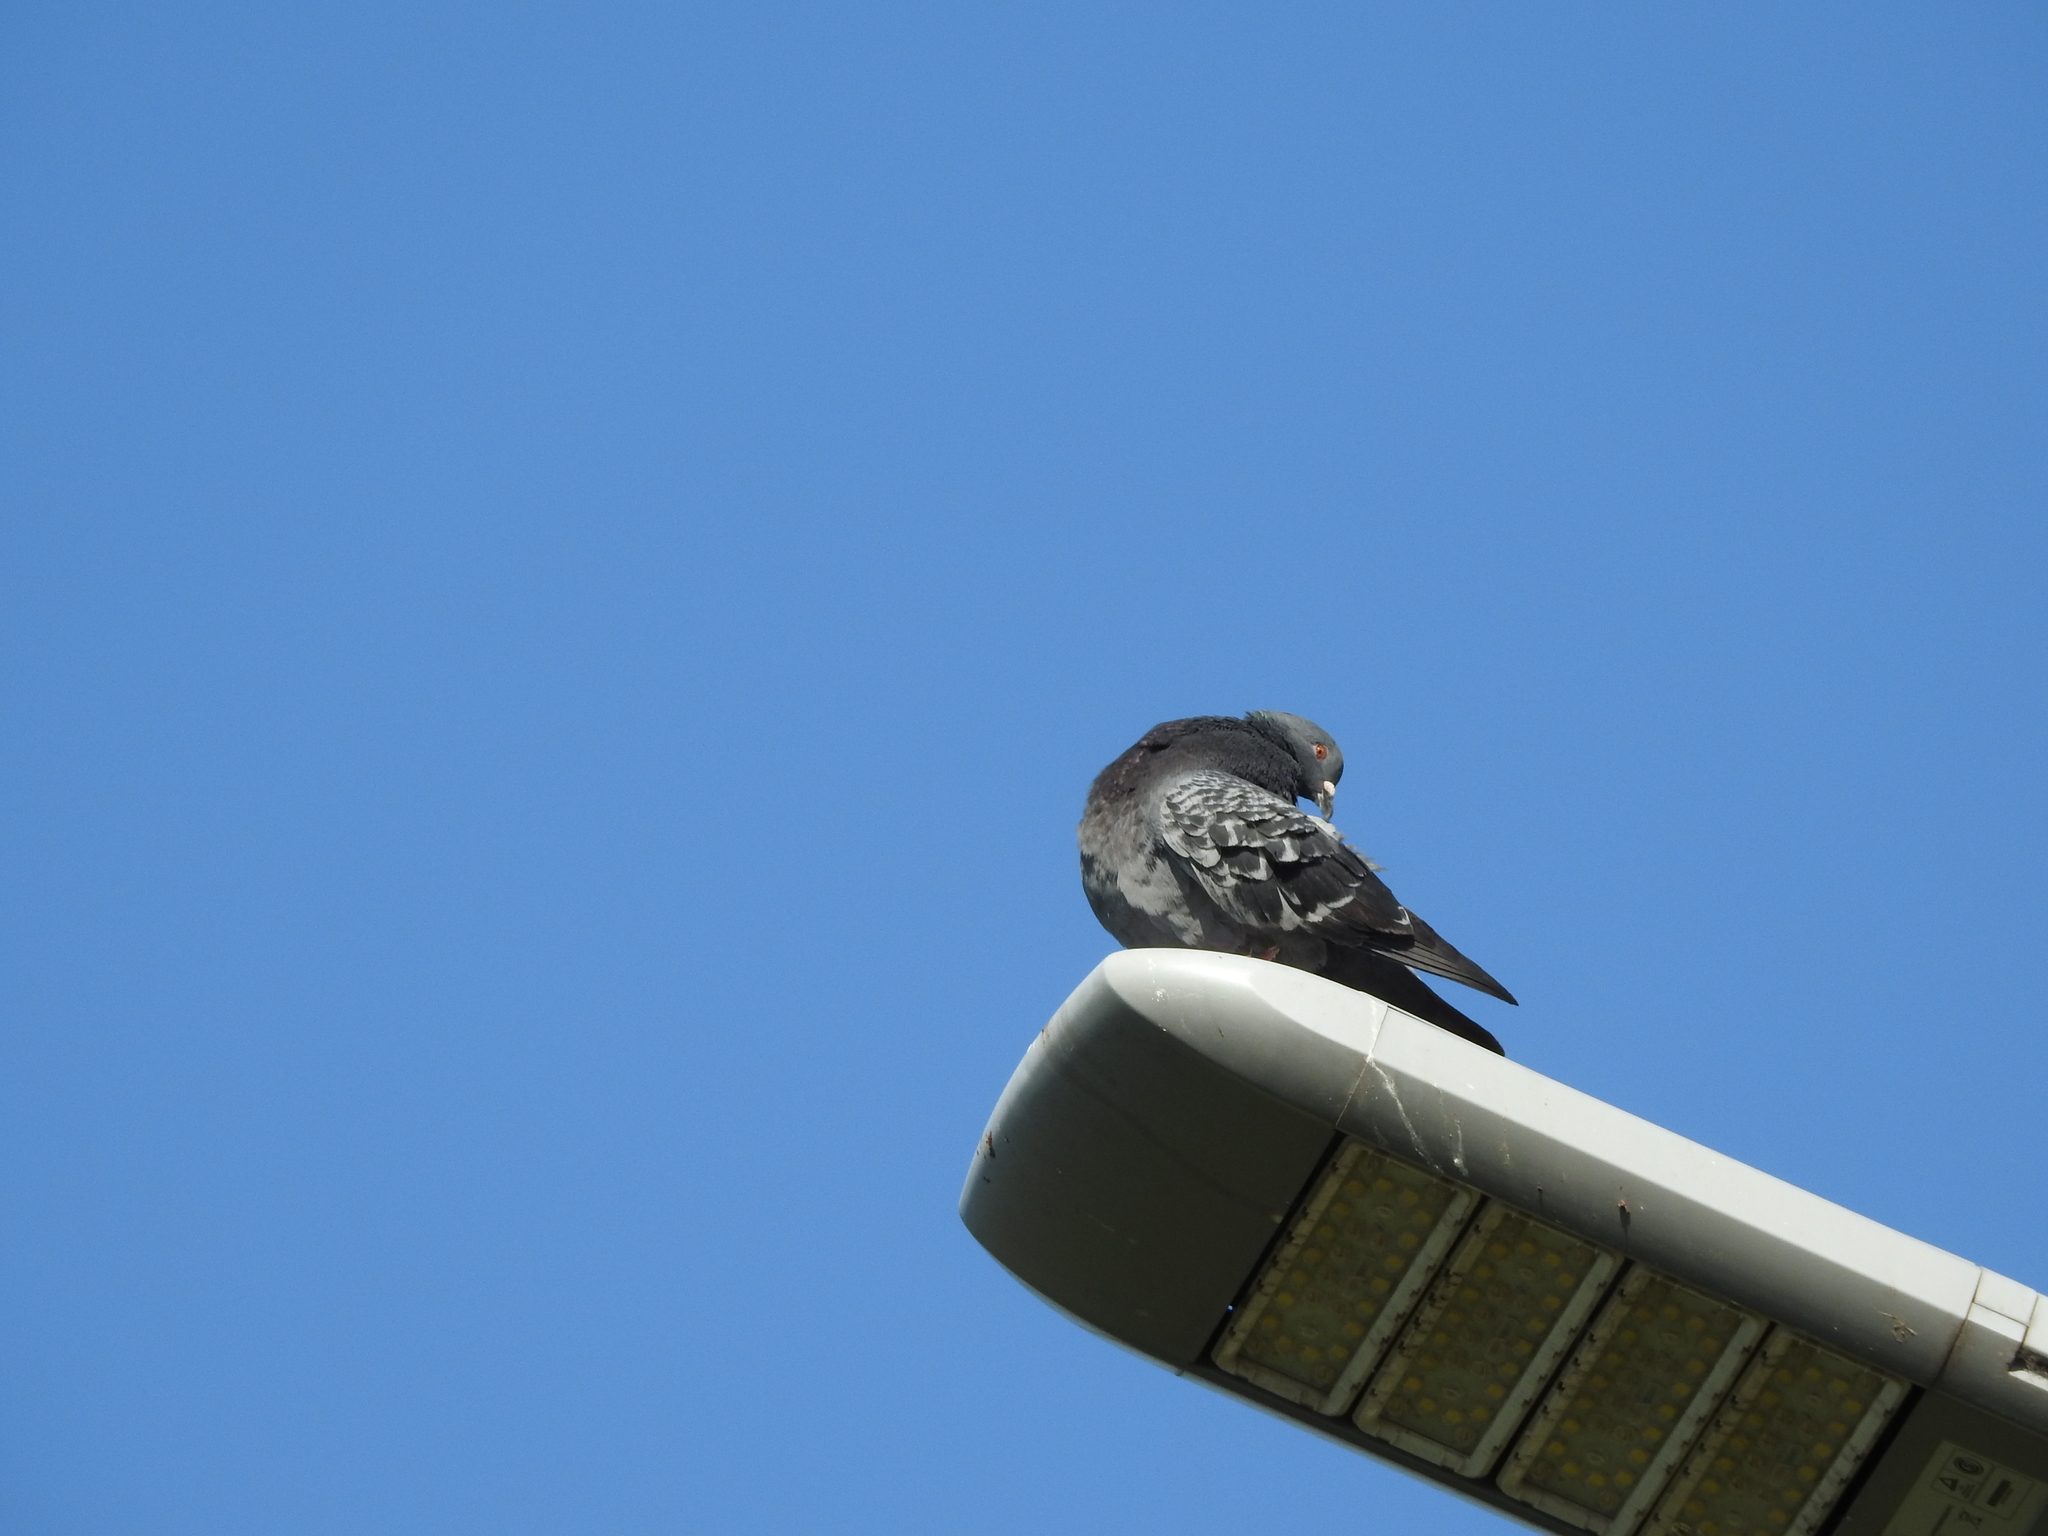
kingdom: Animalia
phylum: Chordata
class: Aves
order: Columbiformes
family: Columbidae
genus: Columba
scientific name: Columba livia
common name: Rock pigeon
